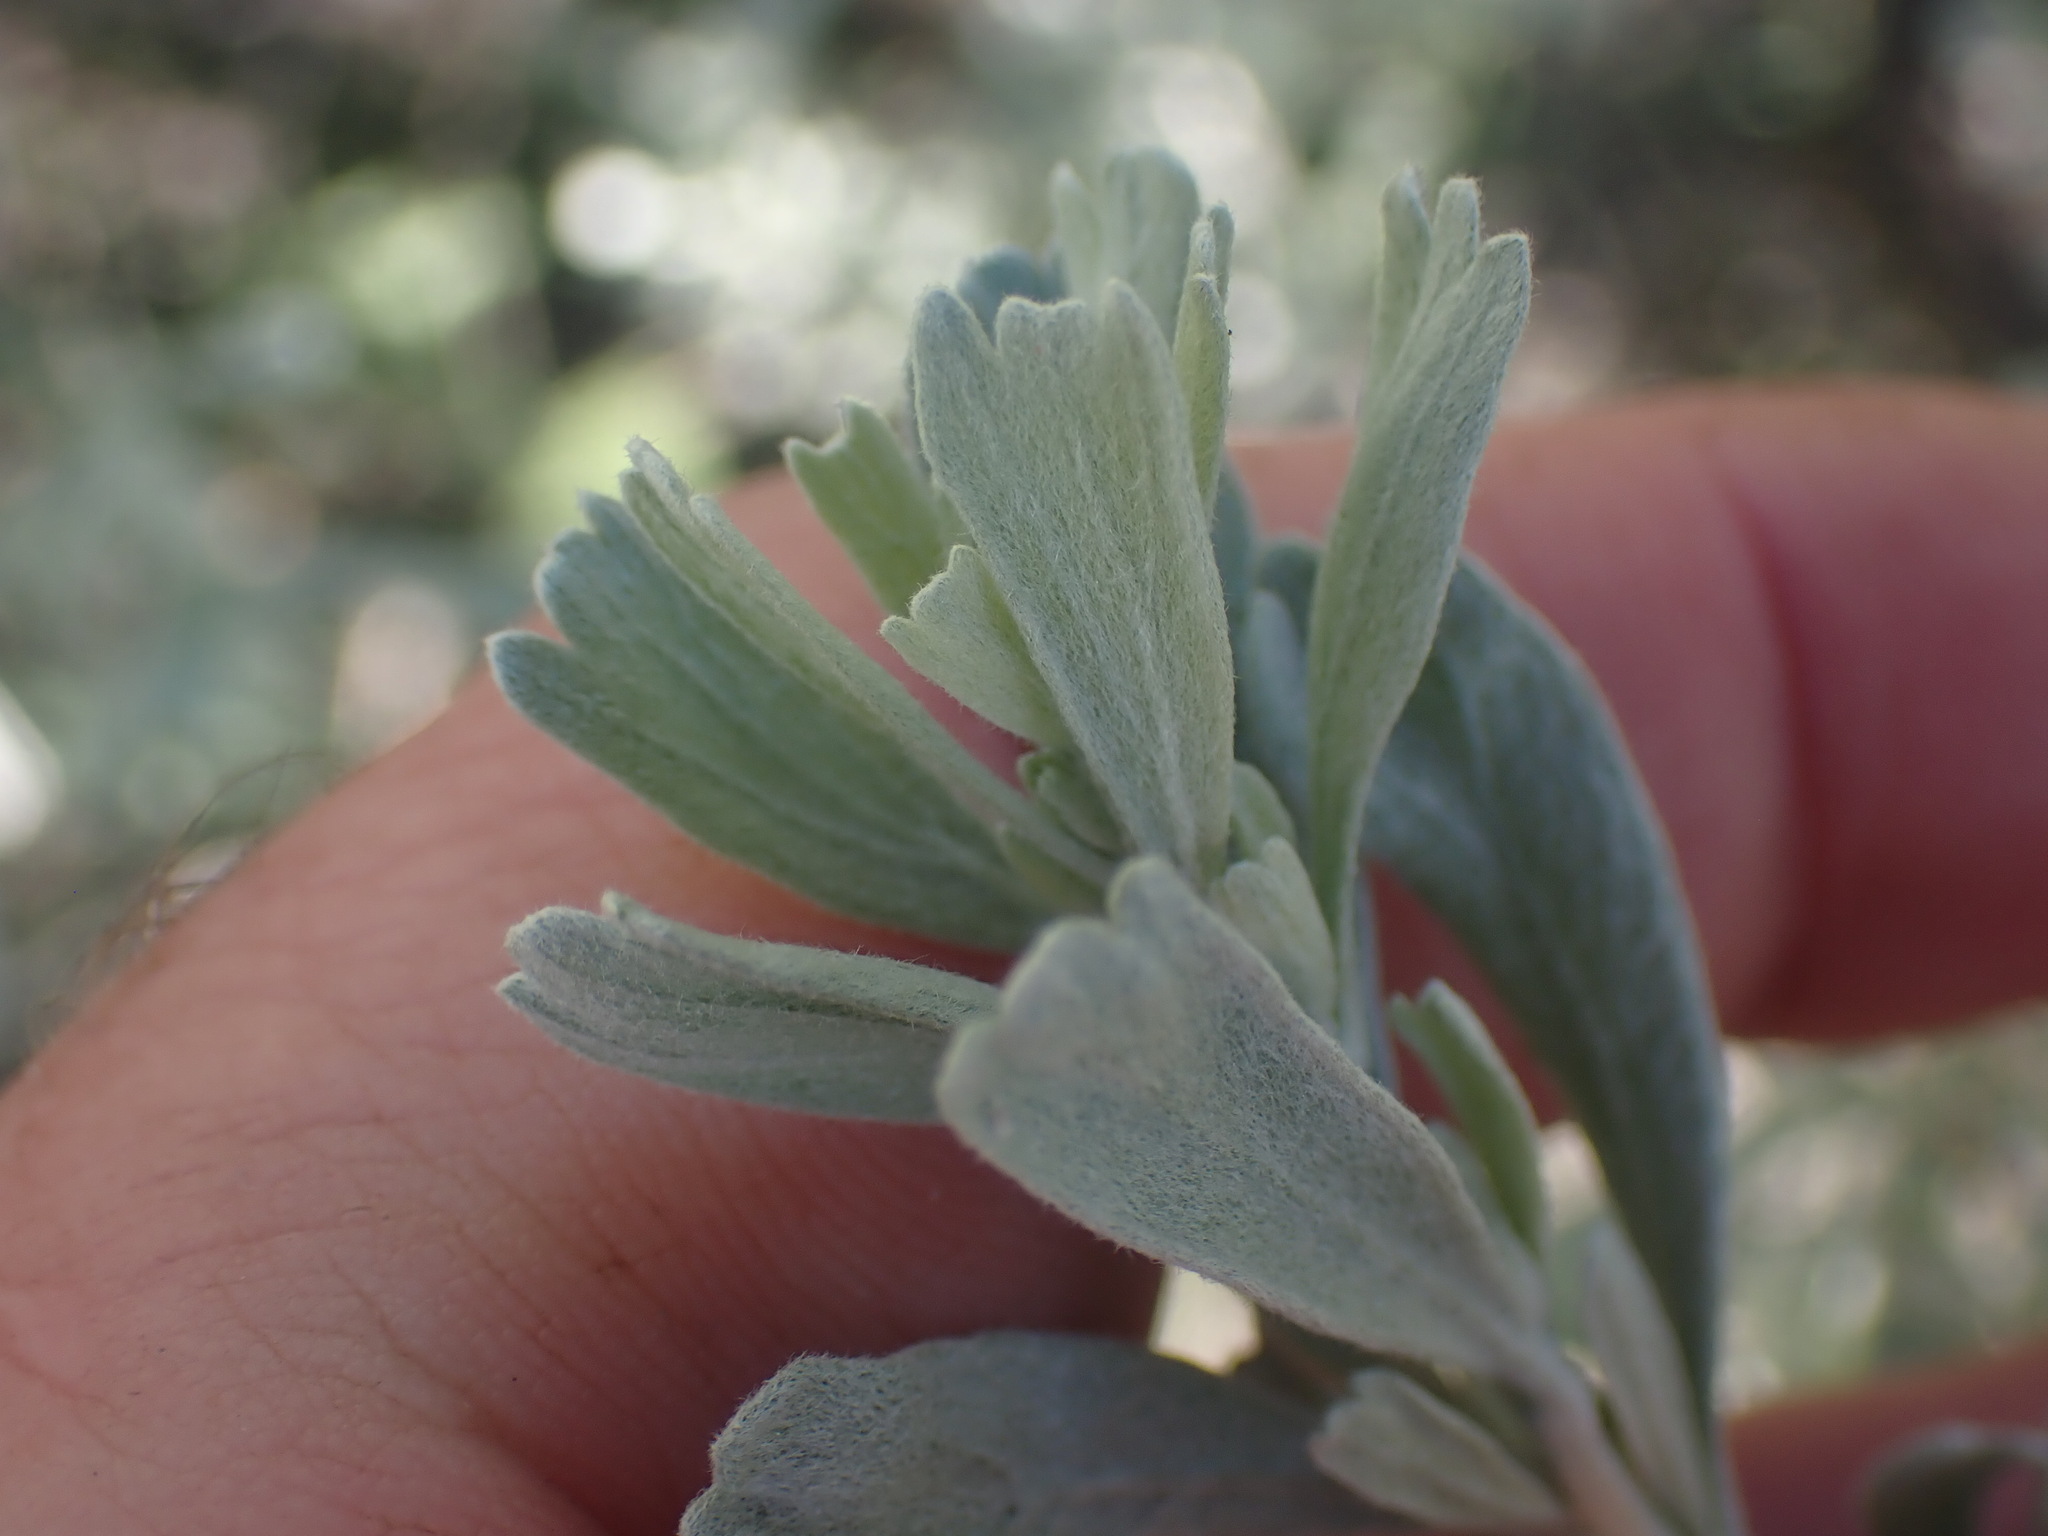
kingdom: Plantae
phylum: Tracheophyta
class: Magnoliopsida
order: Asterales
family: Asteraceae
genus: Artemisia
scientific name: Artemisia tridentata
